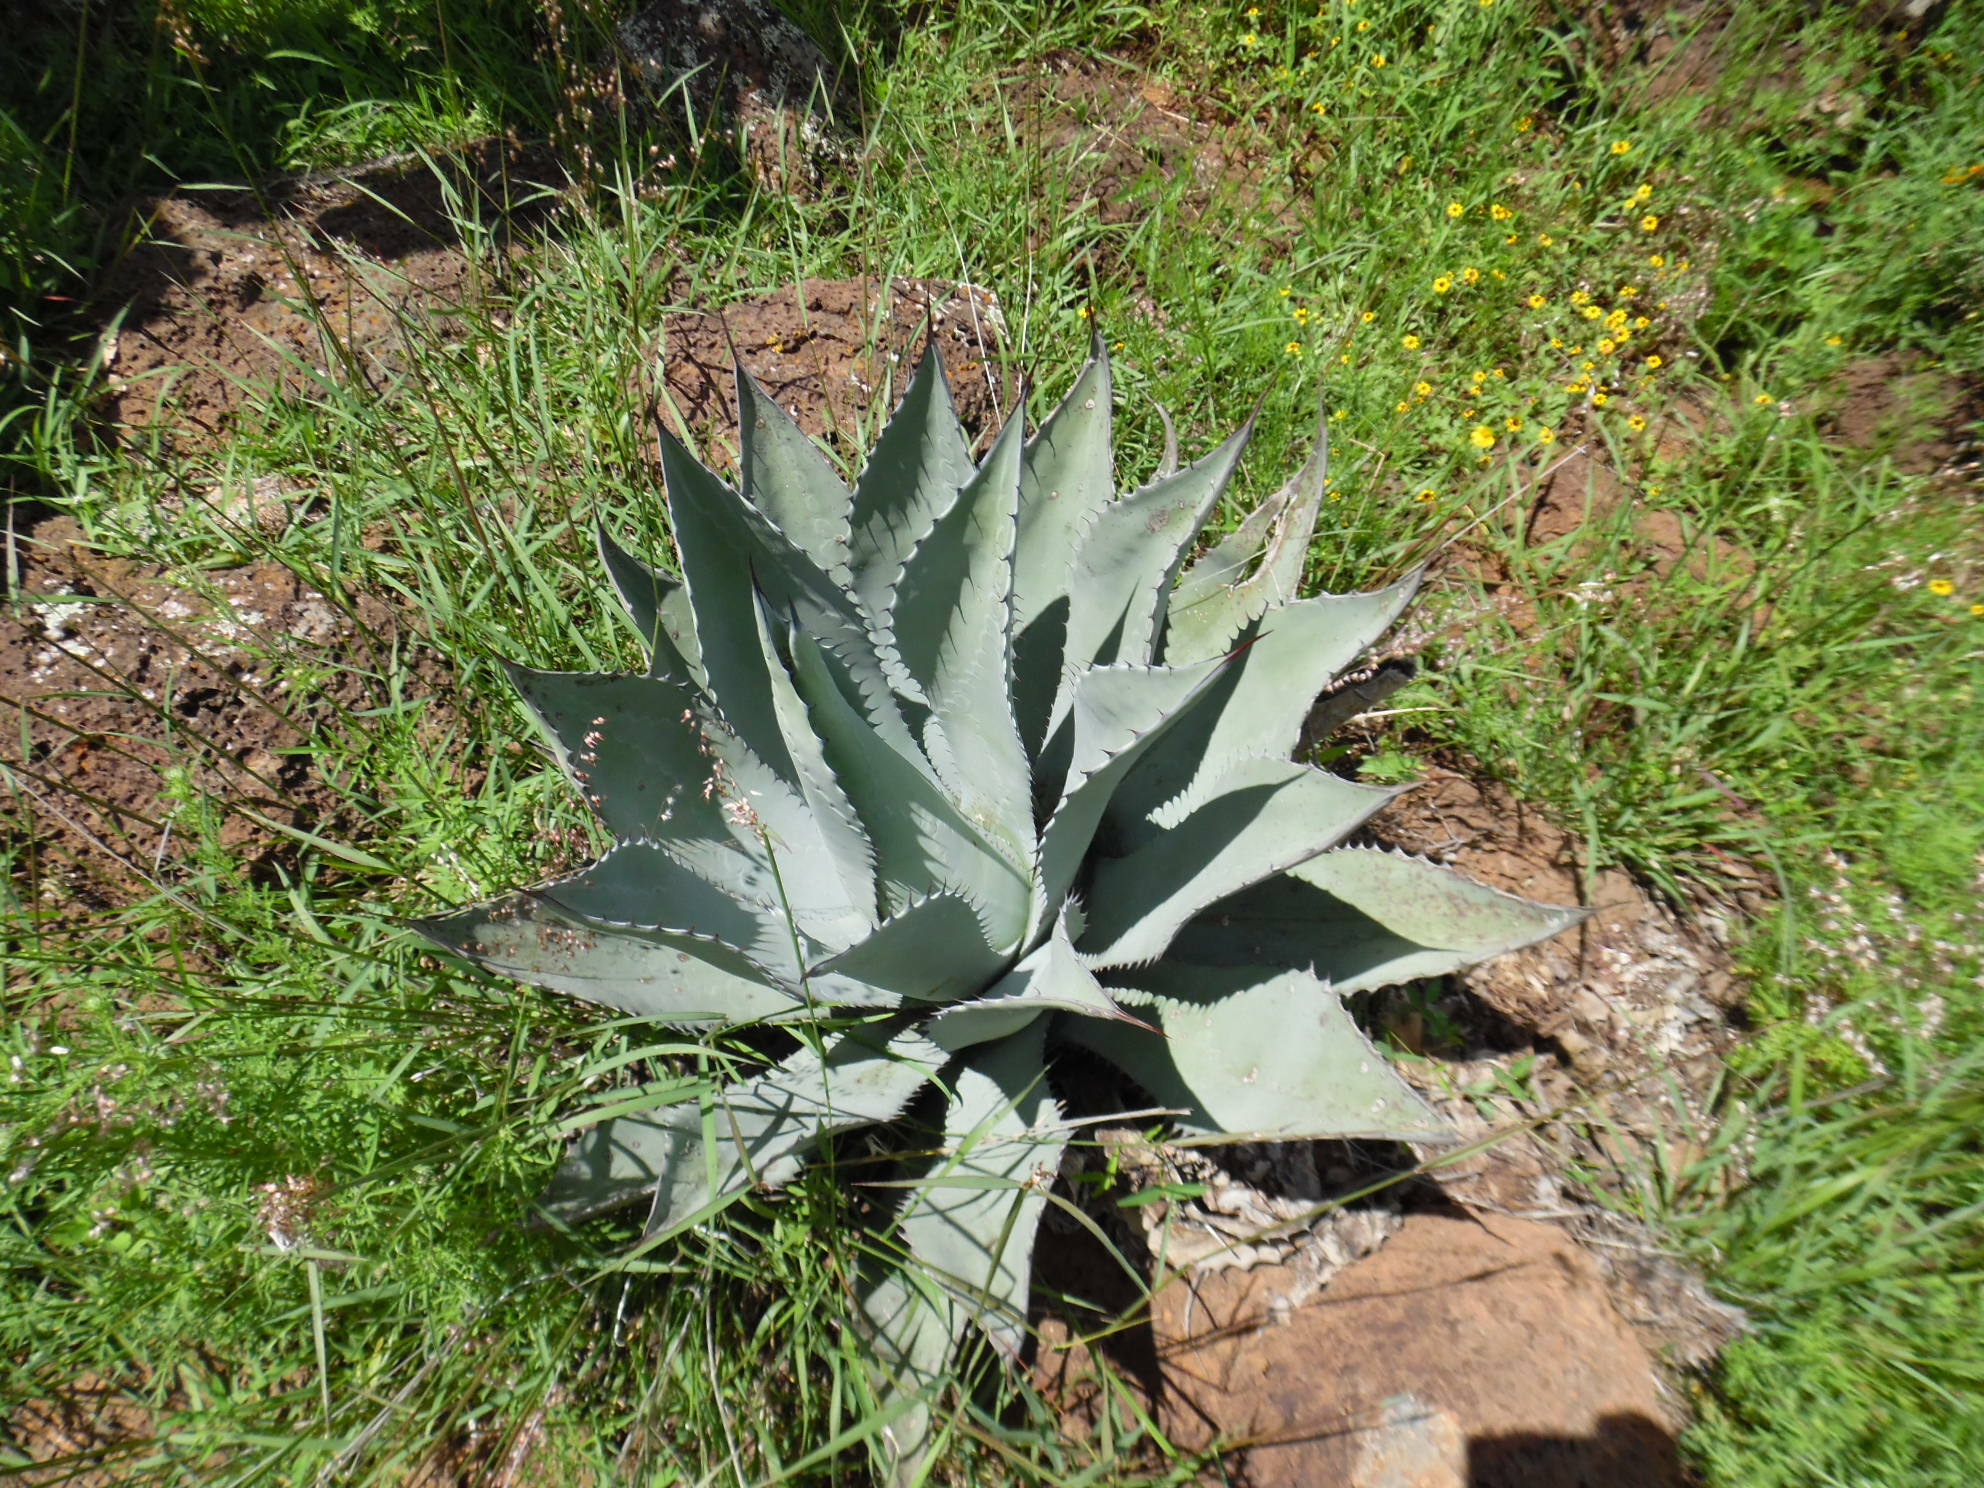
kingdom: Plantae
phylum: Tracheophyta
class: Liliopsida
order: Asparagales
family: Asparagaceae
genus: Agave
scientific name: Agave durangensis
